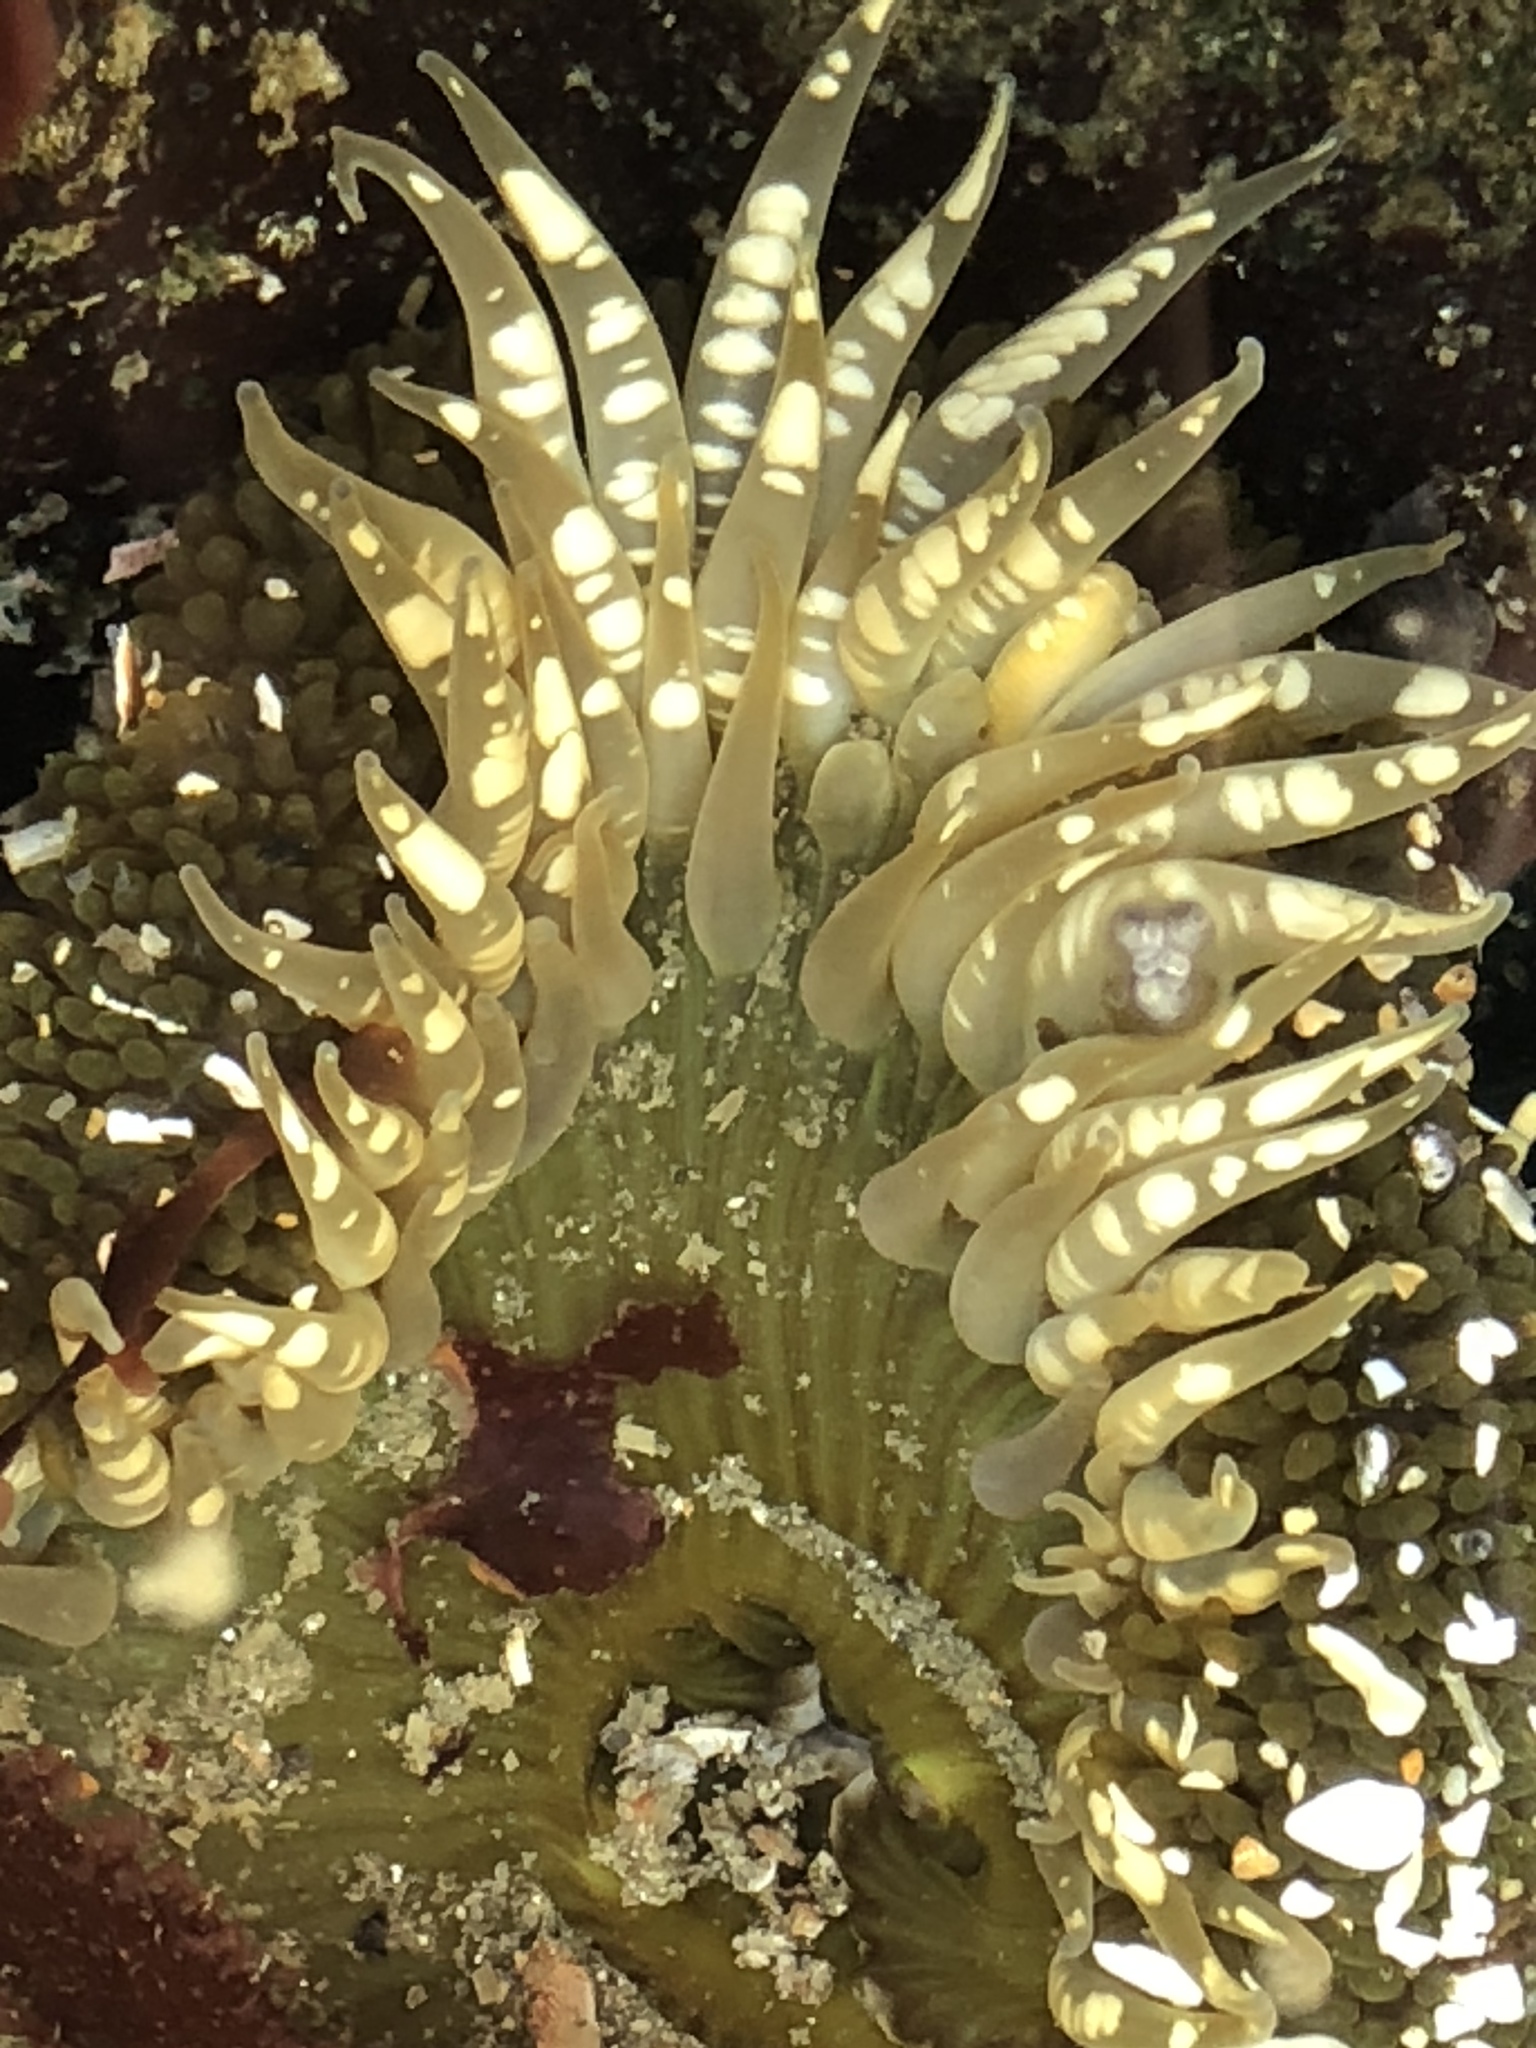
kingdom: Animalia
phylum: Cnidaria
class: Anthozoa
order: Actiniaria
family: Actiniidae
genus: Anthopleura
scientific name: Anthopleura sola
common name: Sun anemone
